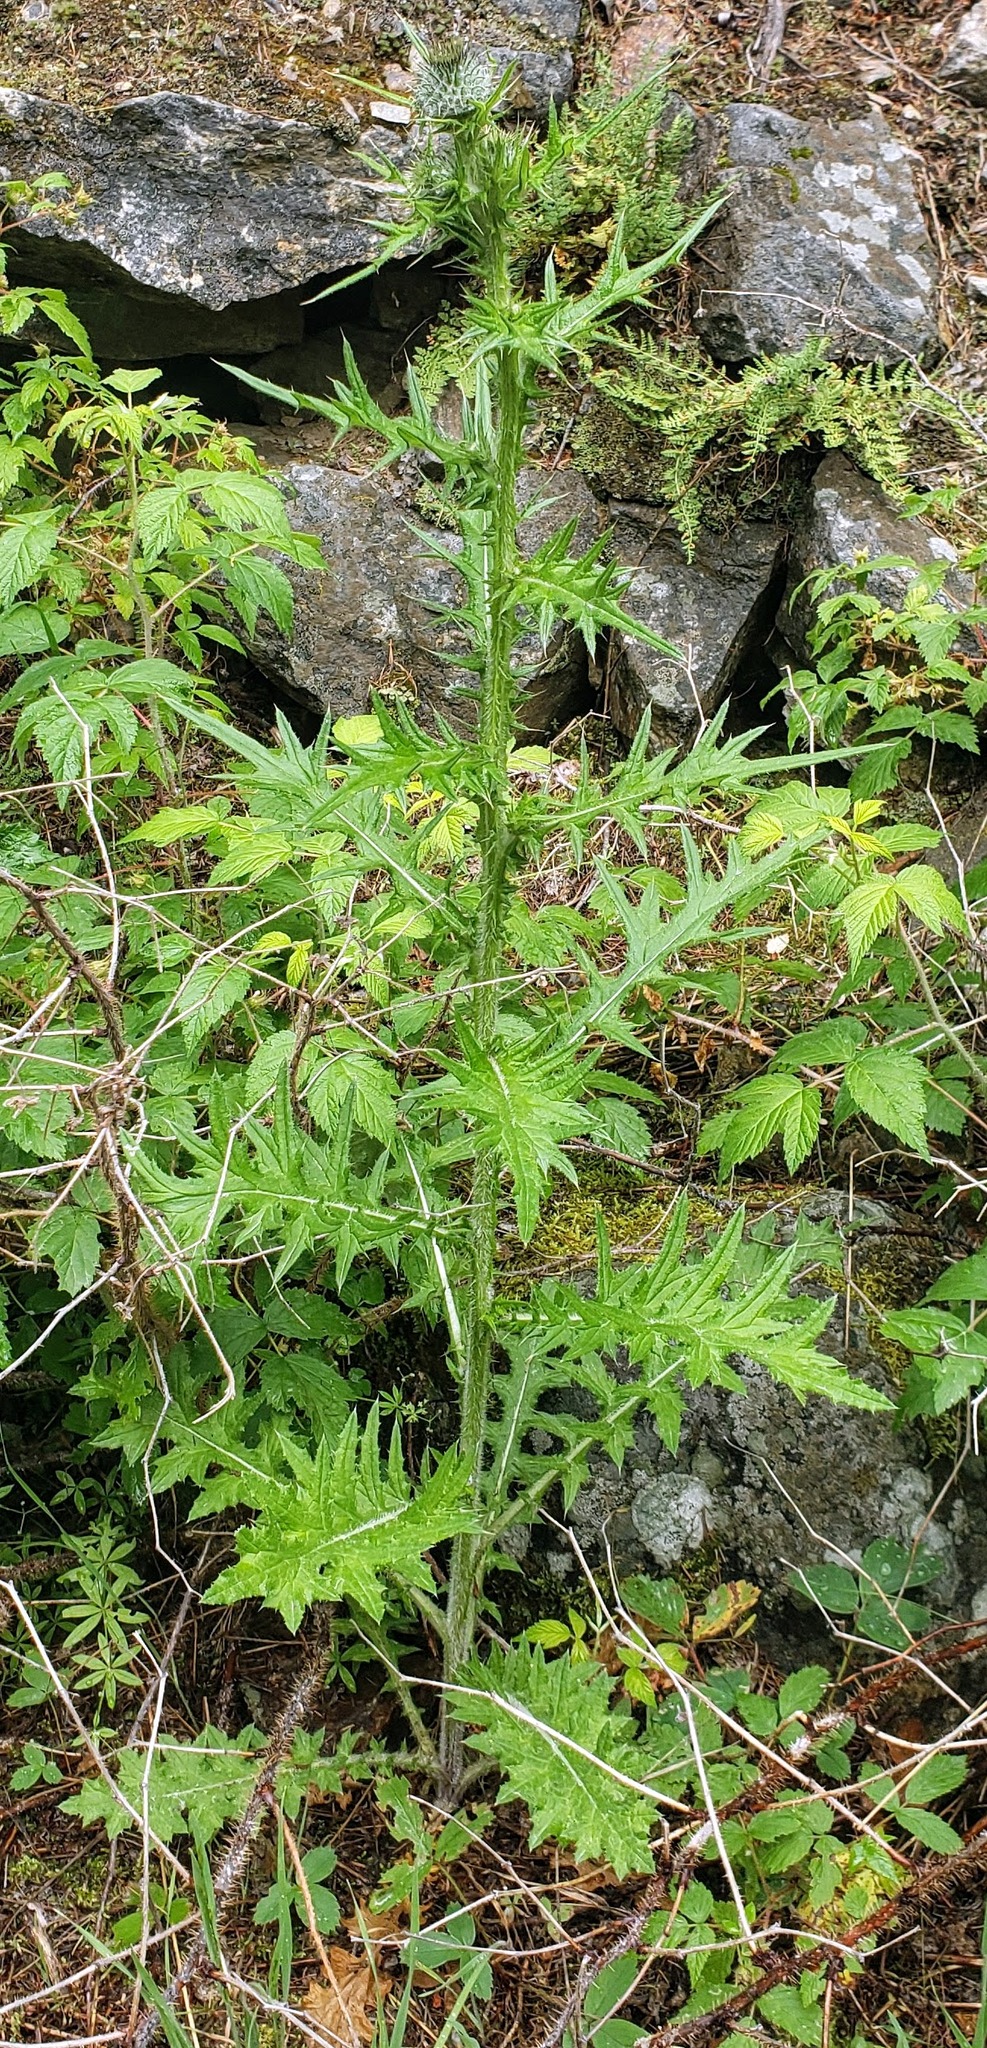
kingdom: Plantae
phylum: Tracheophyta
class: Magnoliopsida
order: Asterales
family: Asteraceae
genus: Cirsium
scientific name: Cirsium vulgare
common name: Bull thistle
